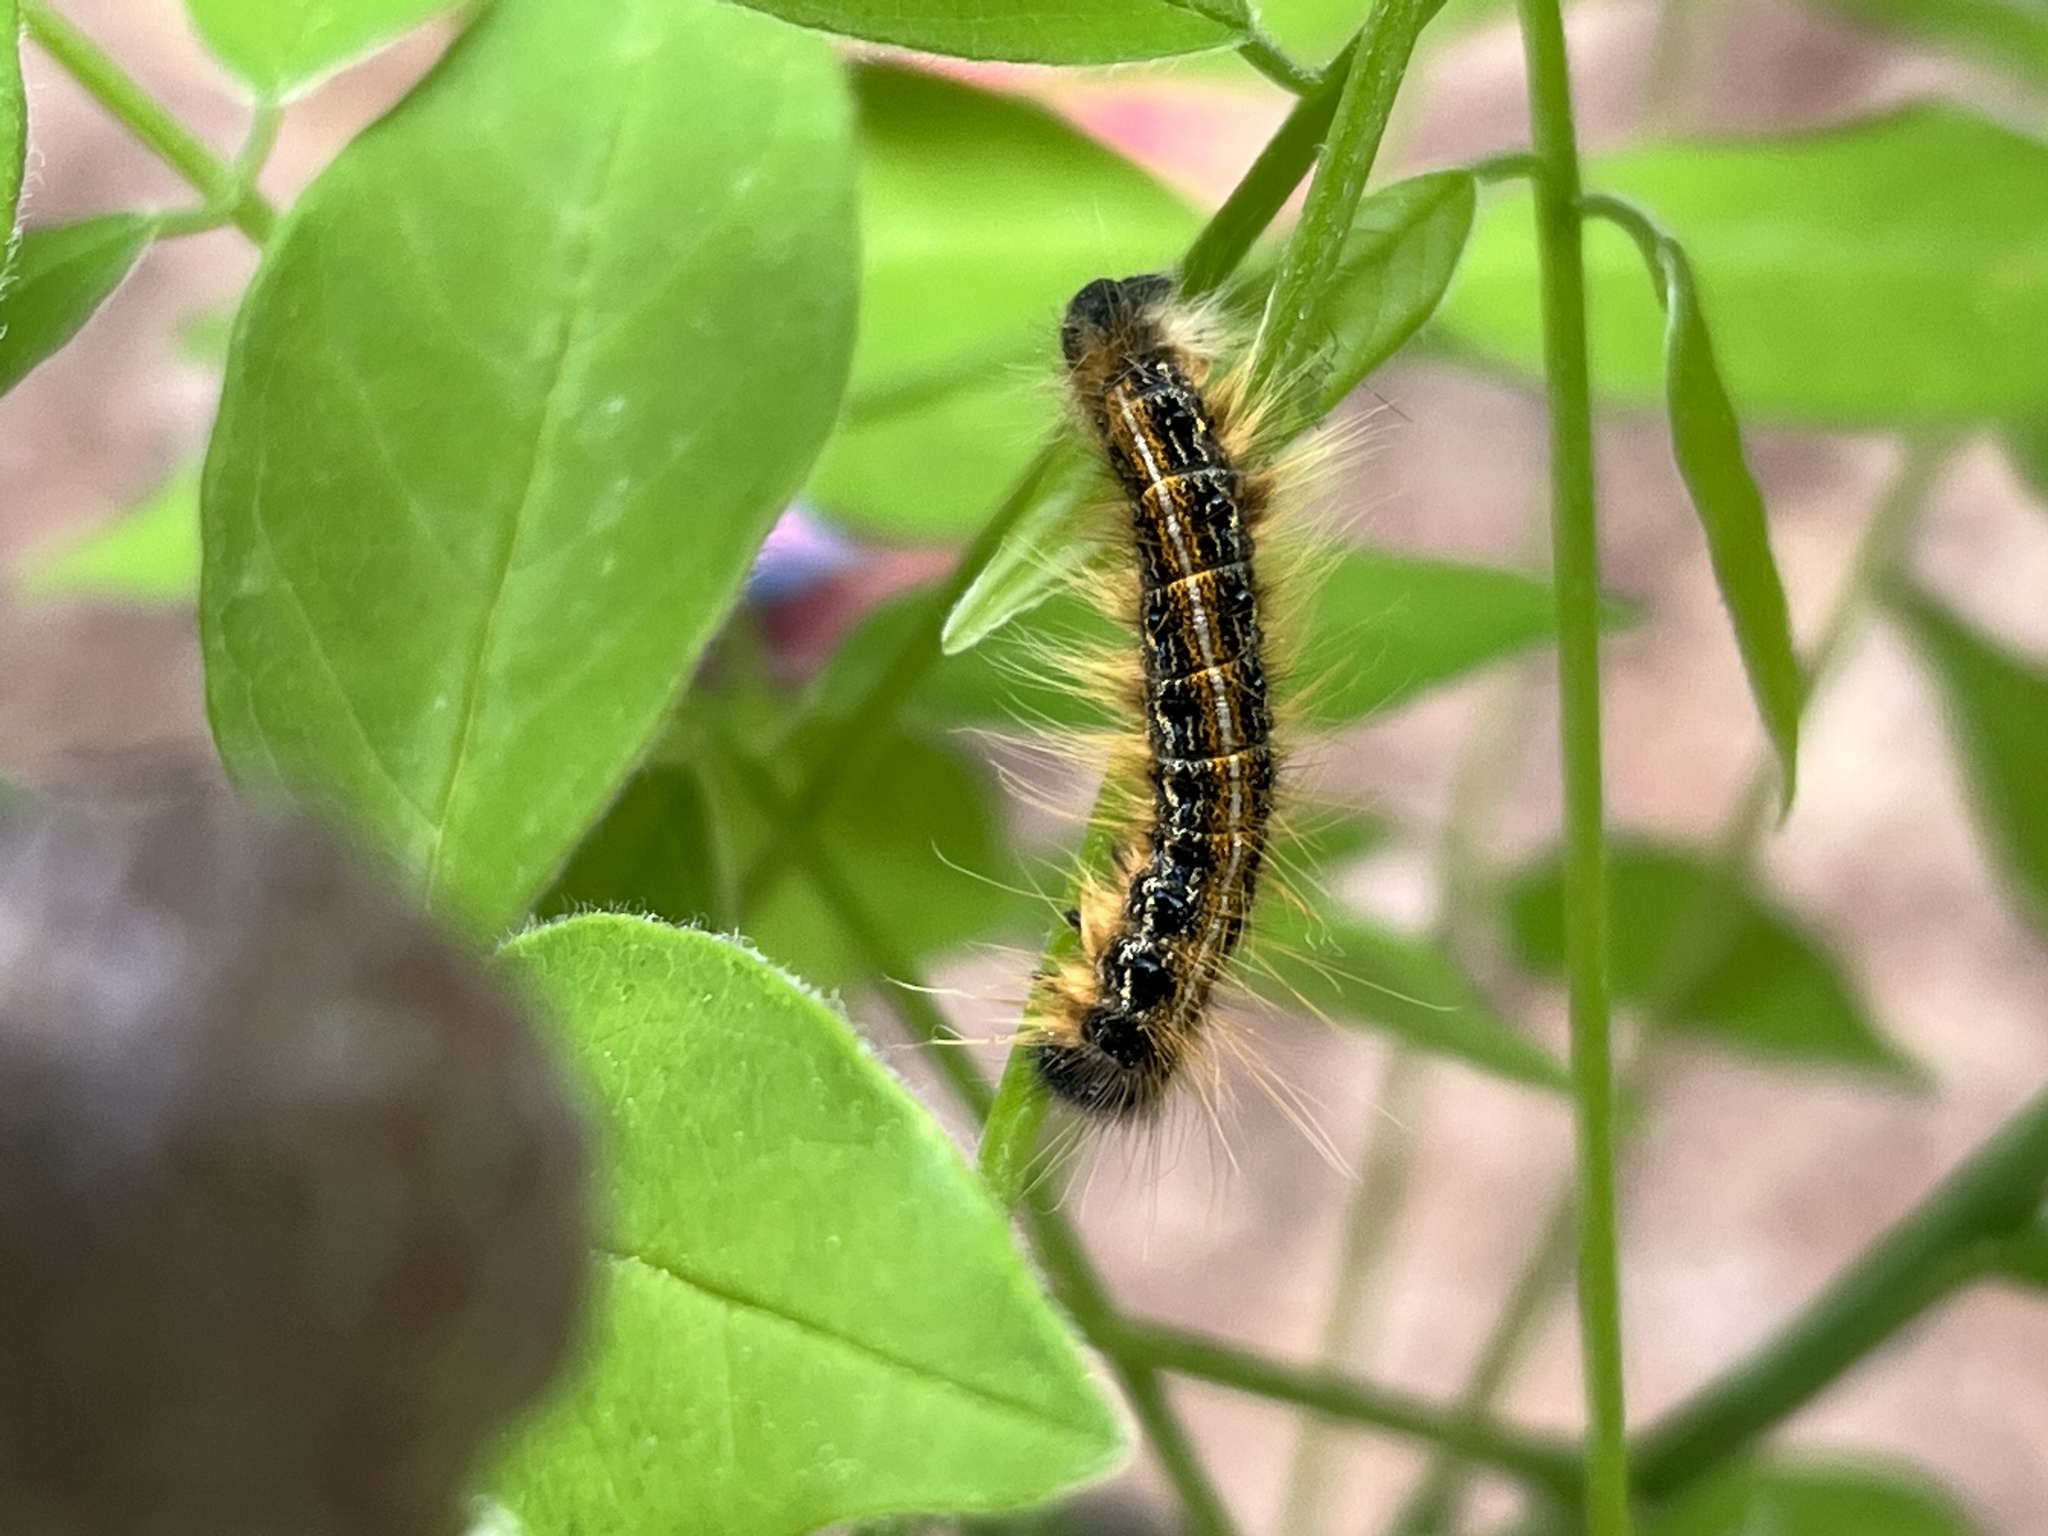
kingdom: Animalia
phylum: Arthropoda
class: Insecta
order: Lepidoptera
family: Lasiocampidae
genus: Malacosoma
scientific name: Malacosoma americana
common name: Eastern tent caterpillar moth
